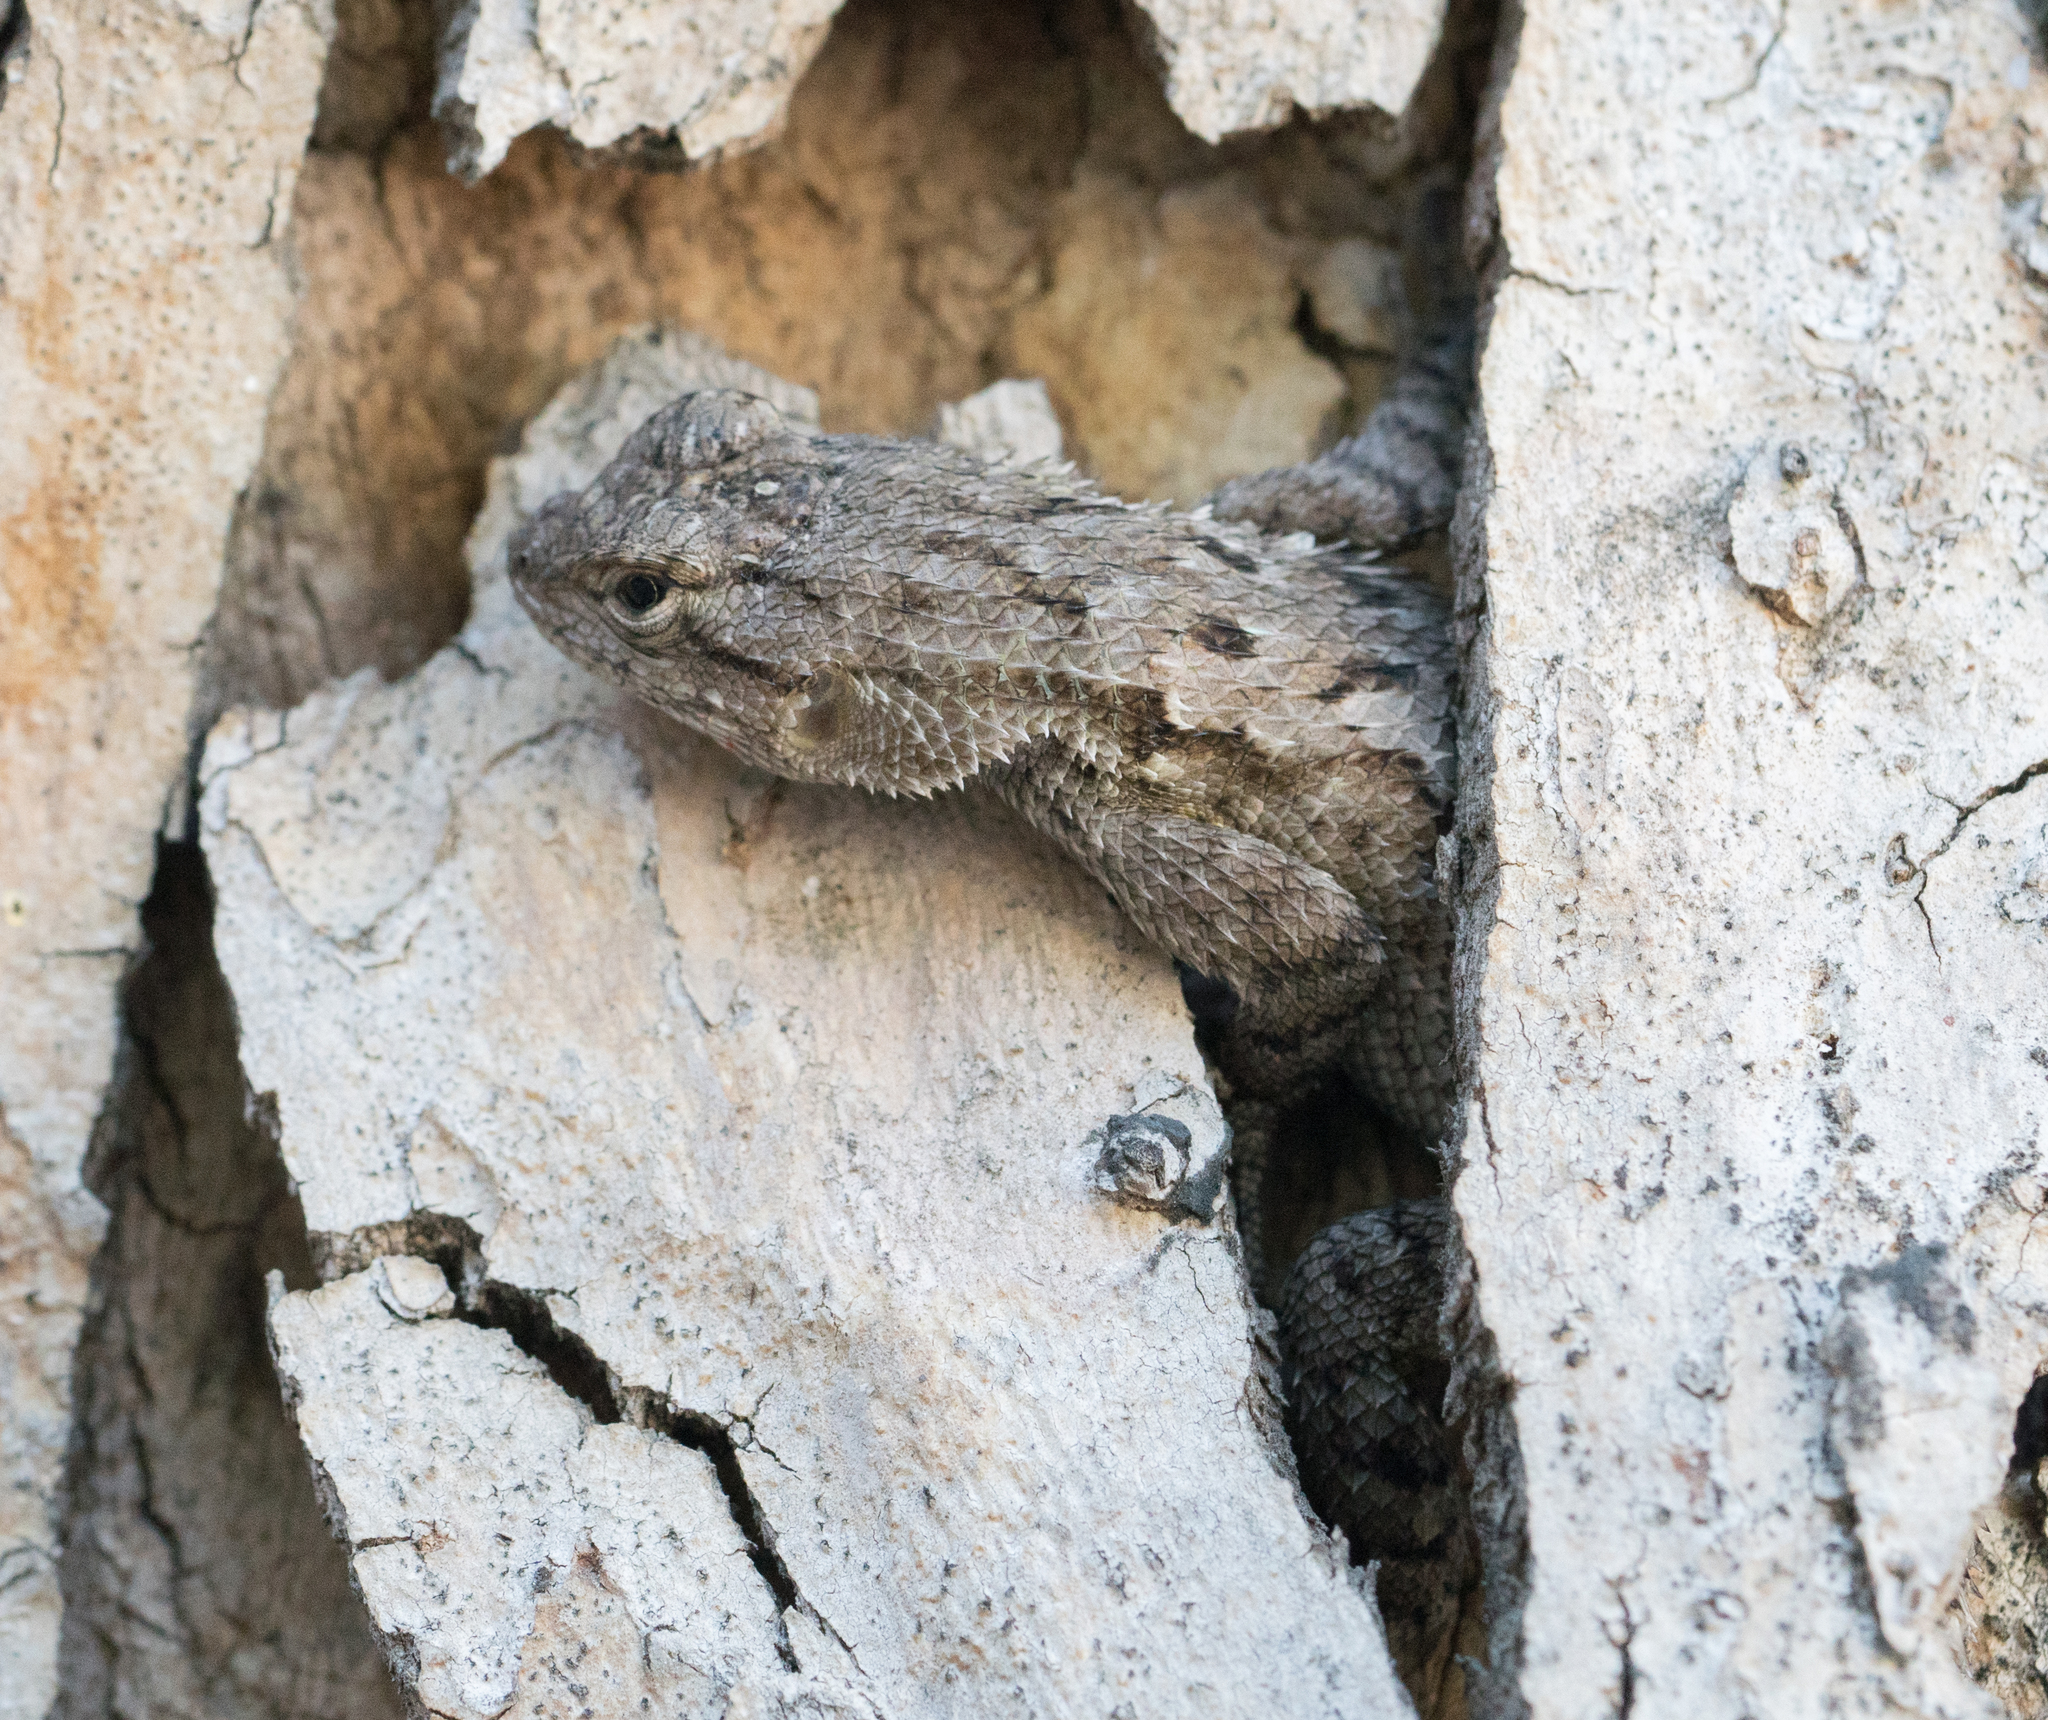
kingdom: Animalia
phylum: Chordata
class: Squamata
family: Phrynosomatidae
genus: Sceloporus
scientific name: Sceloporus occidentalis
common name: Western fence lizard
